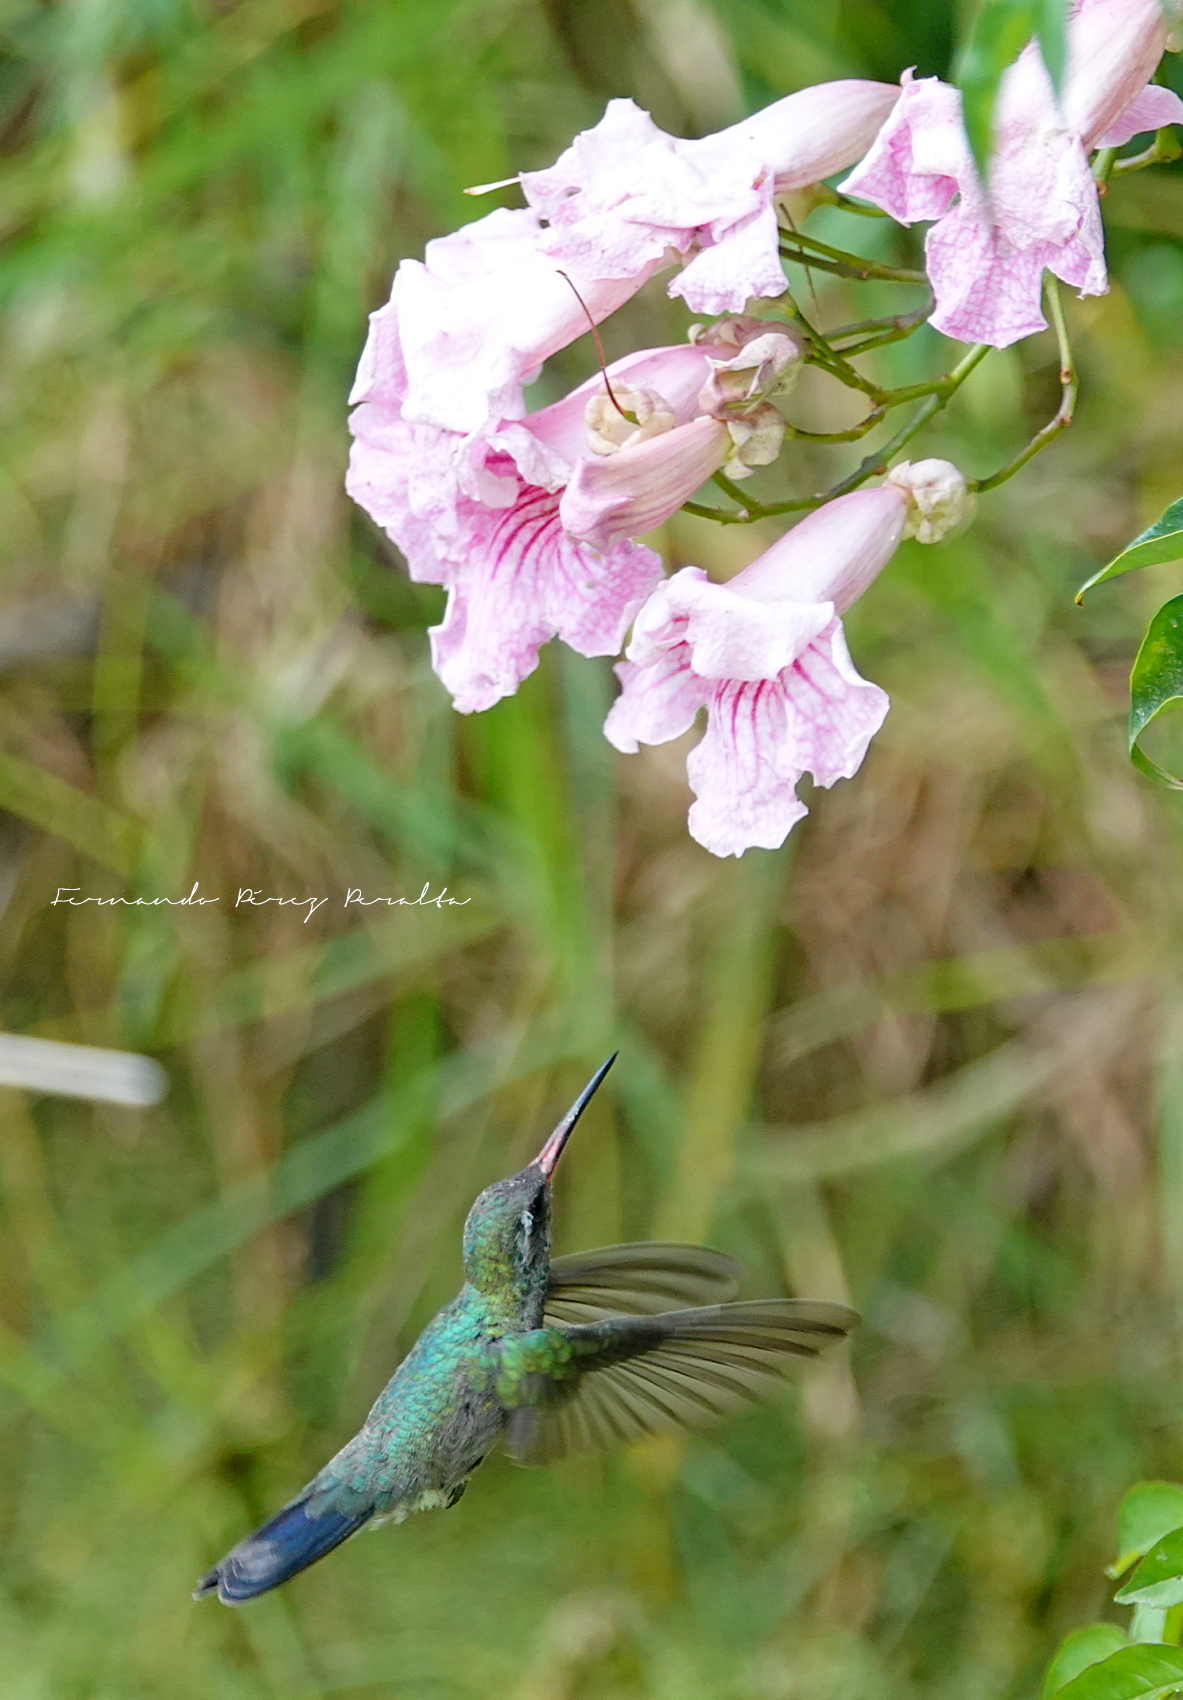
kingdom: Animalia
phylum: Chordata
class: Aves
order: Apodiformes
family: Trochilidae
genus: Cynanthus
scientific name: Cynanthus latirostris
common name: Broad-billed hummingbird
